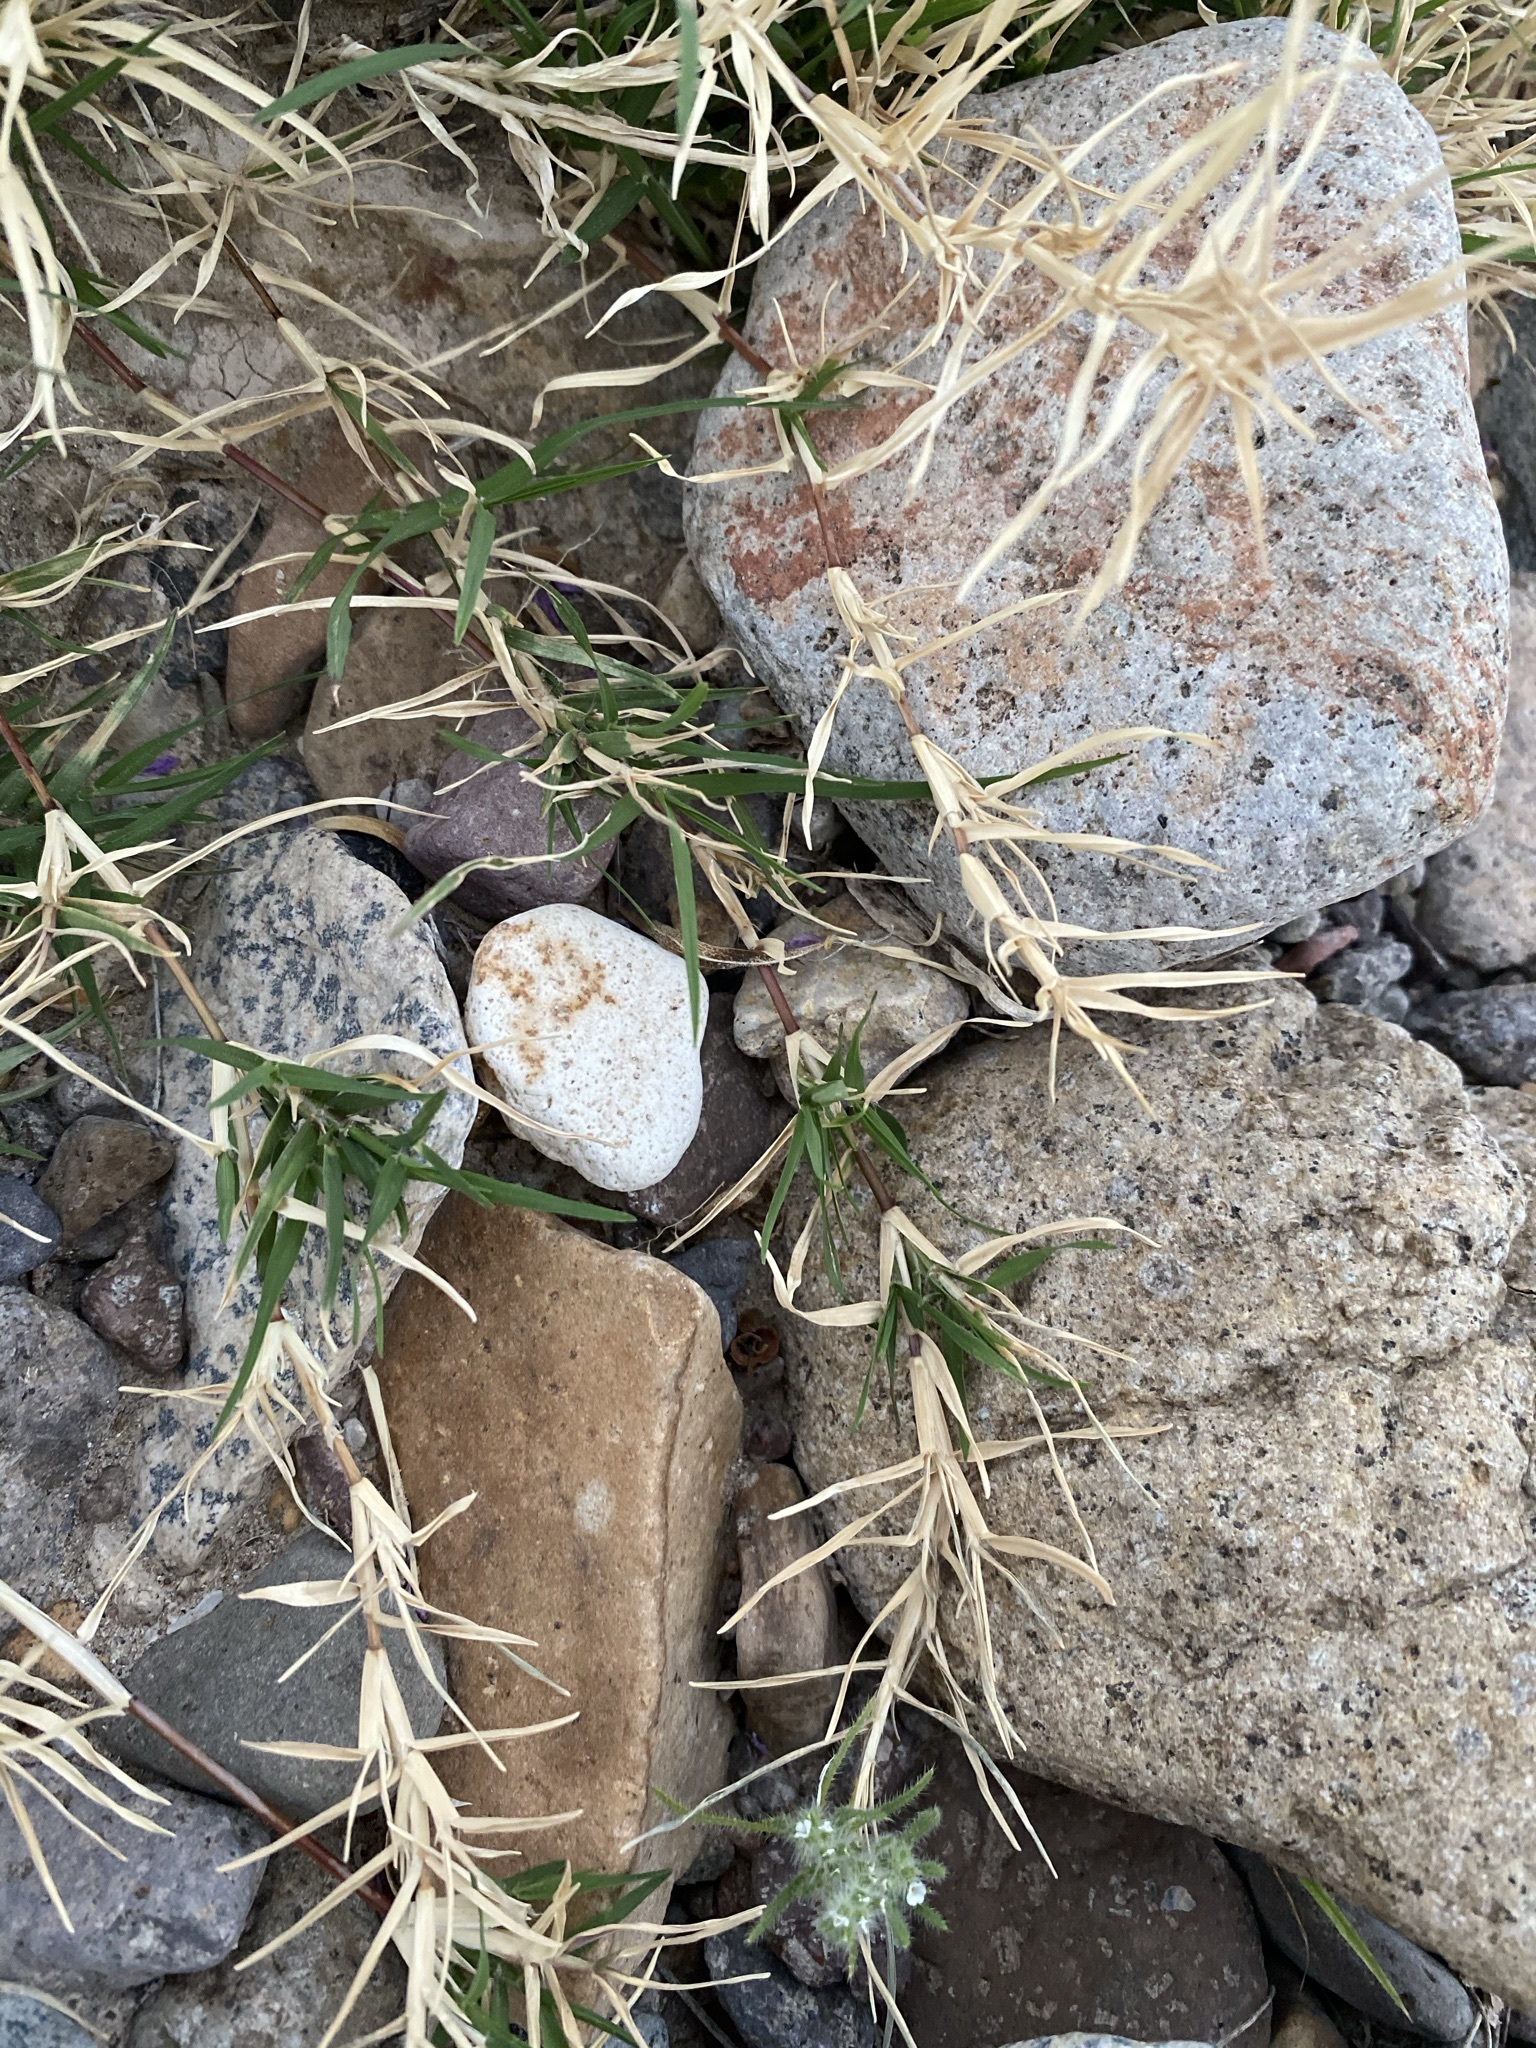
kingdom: Plantae
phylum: Tracheophyta
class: Liliopsida
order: Poales
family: Poaceae
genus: Cynodon
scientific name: Cynodon dactylon
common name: Bermuda grass
